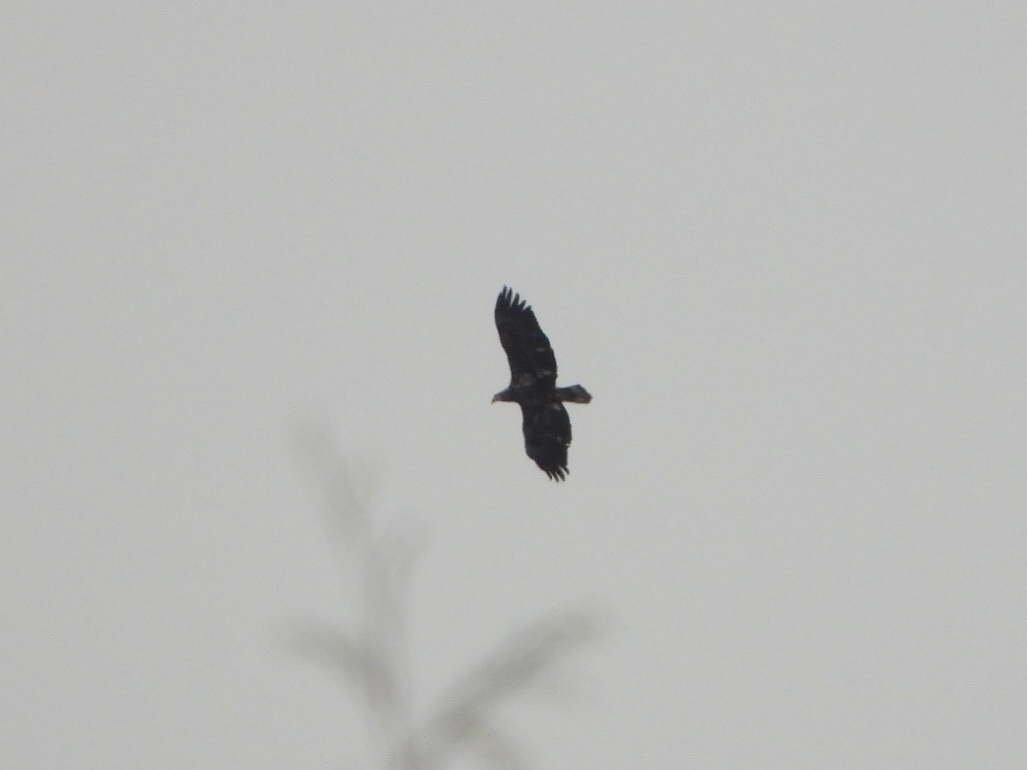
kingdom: Animalia
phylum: Chordata
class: Aves
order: Accipitriformes
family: Accipitridae
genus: Haliaeetus
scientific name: Haliaeetus leucocephalus
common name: Bald eagle
